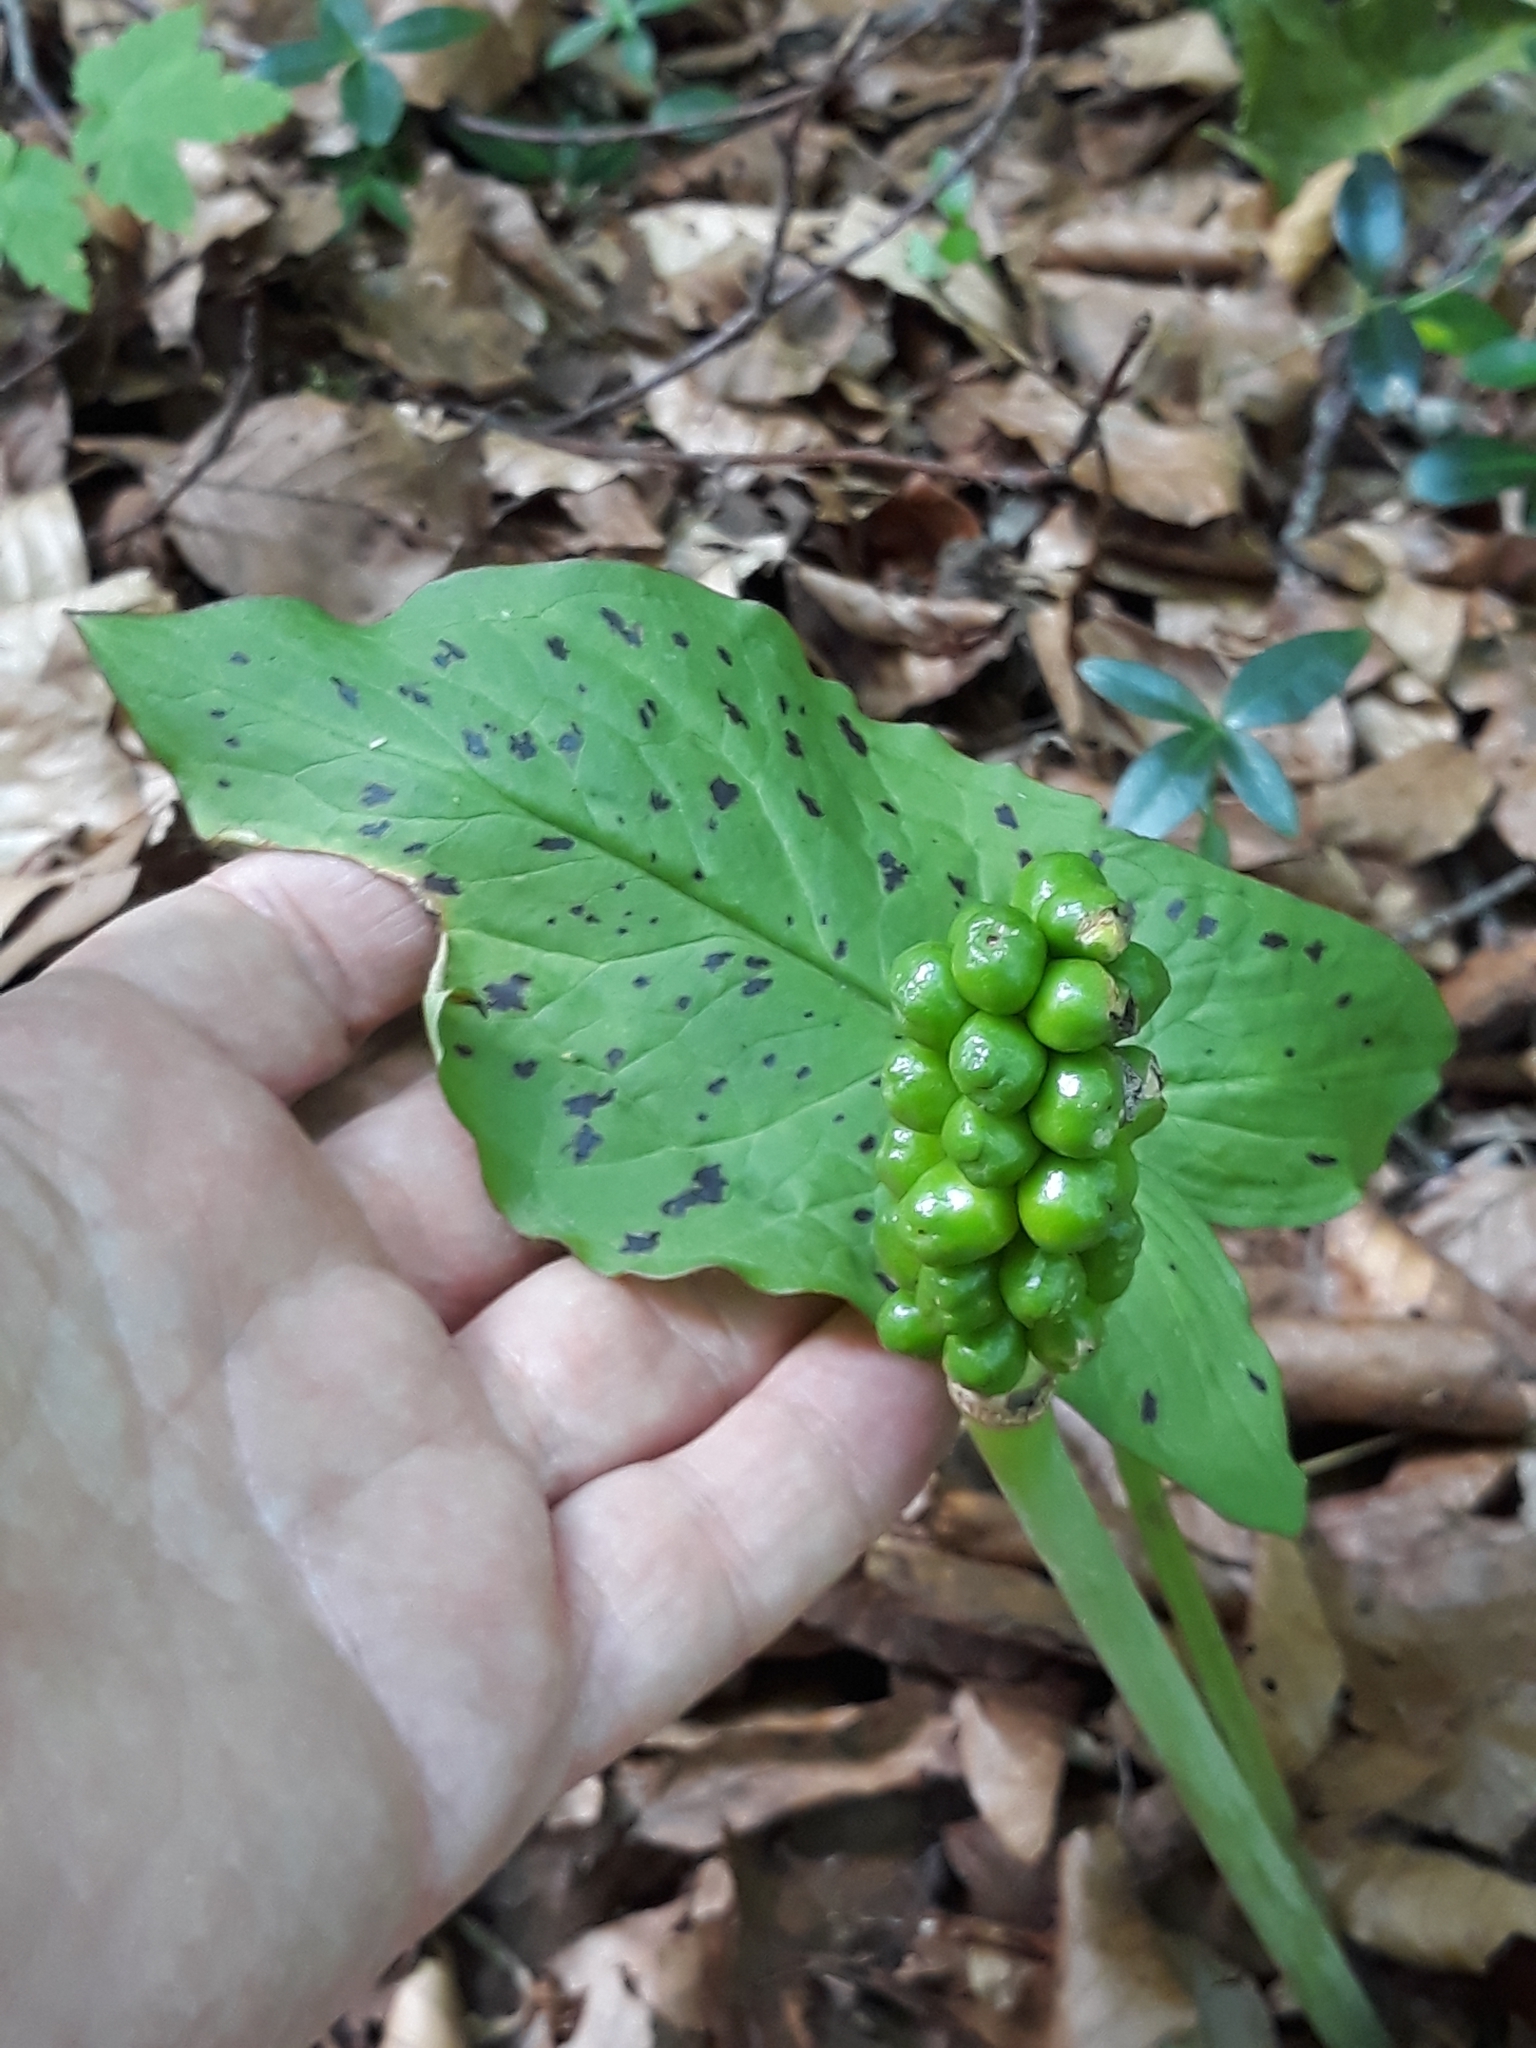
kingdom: Plantae
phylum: Tracheophyta
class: Liliopsida
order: Alismatales
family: Araceae
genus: Arum
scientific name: Arum maculatum
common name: Lords-and-ladies
